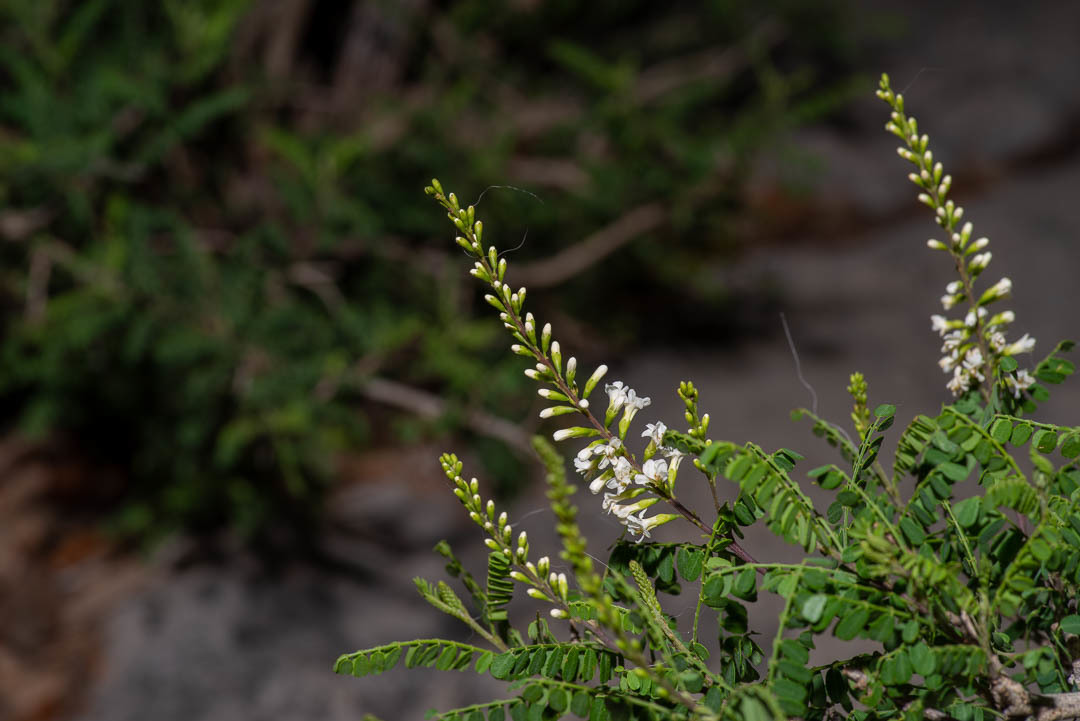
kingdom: Plantae
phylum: Tracheophyta
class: Magnoliopsida
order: Fabales
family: Fabaceae
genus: Eysenhardtia
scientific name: Eysenhardtia texana
